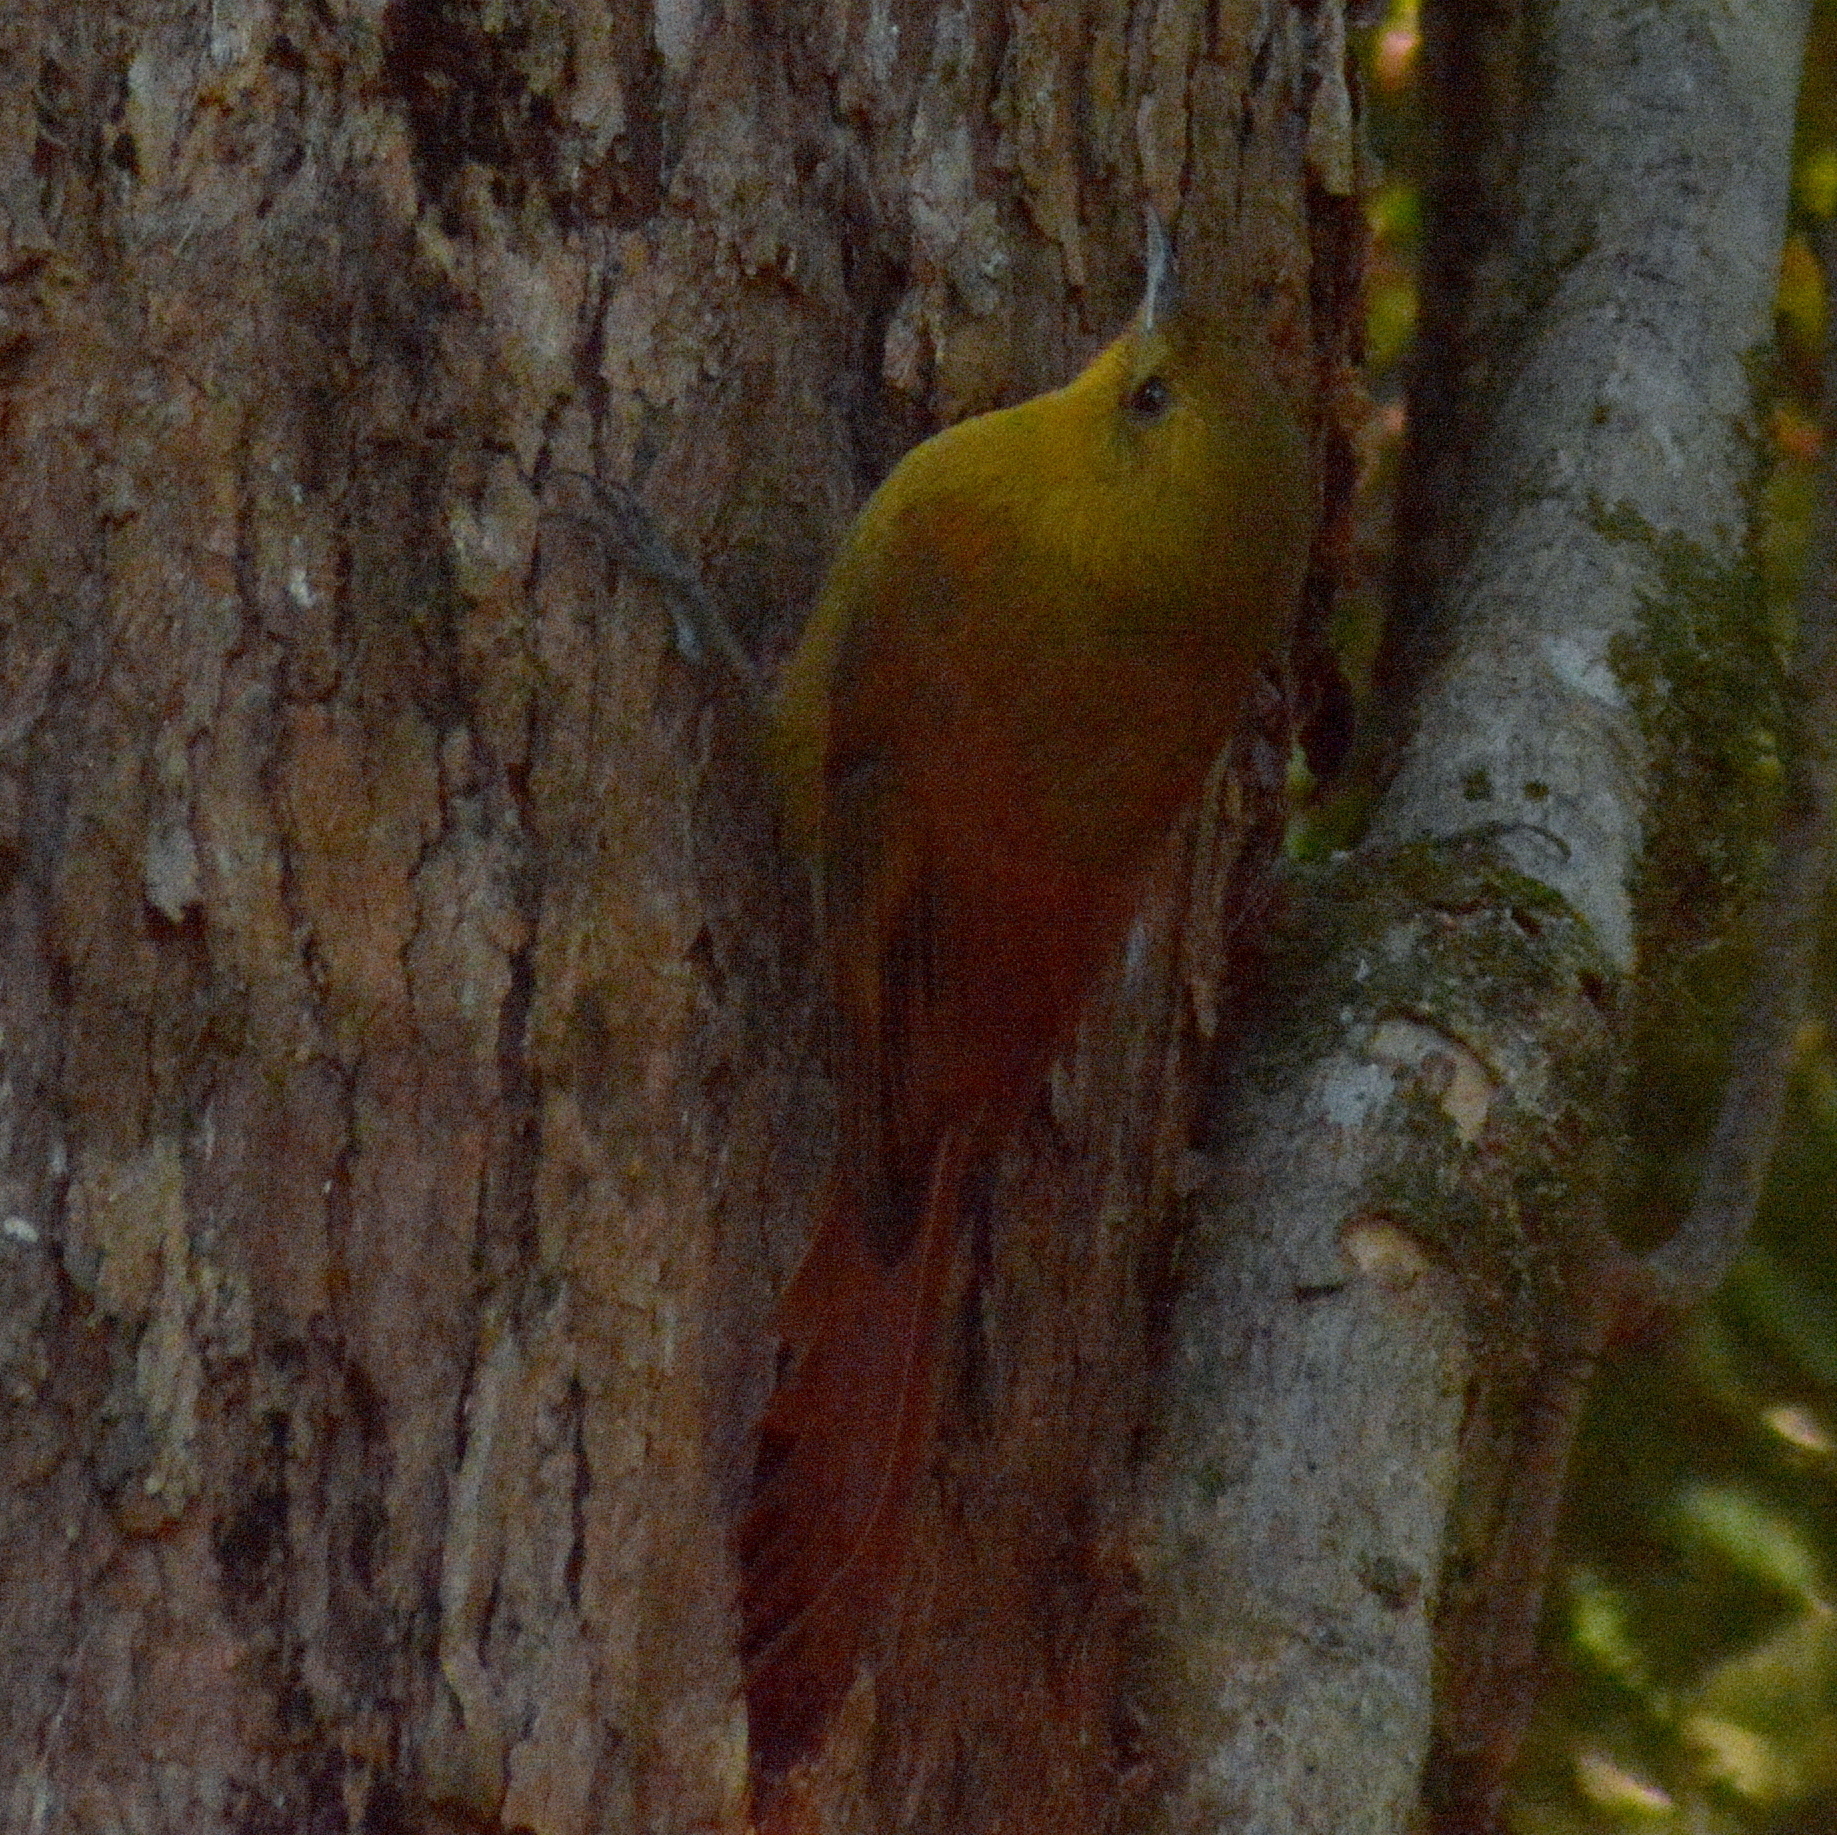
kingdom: Animalia
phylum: Chordata
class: Aves
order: Passeriformes
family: Furnariidae
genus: Sittasomus
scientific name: Sittasomus griseicapillus
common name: Olivaceous woodcreeper
